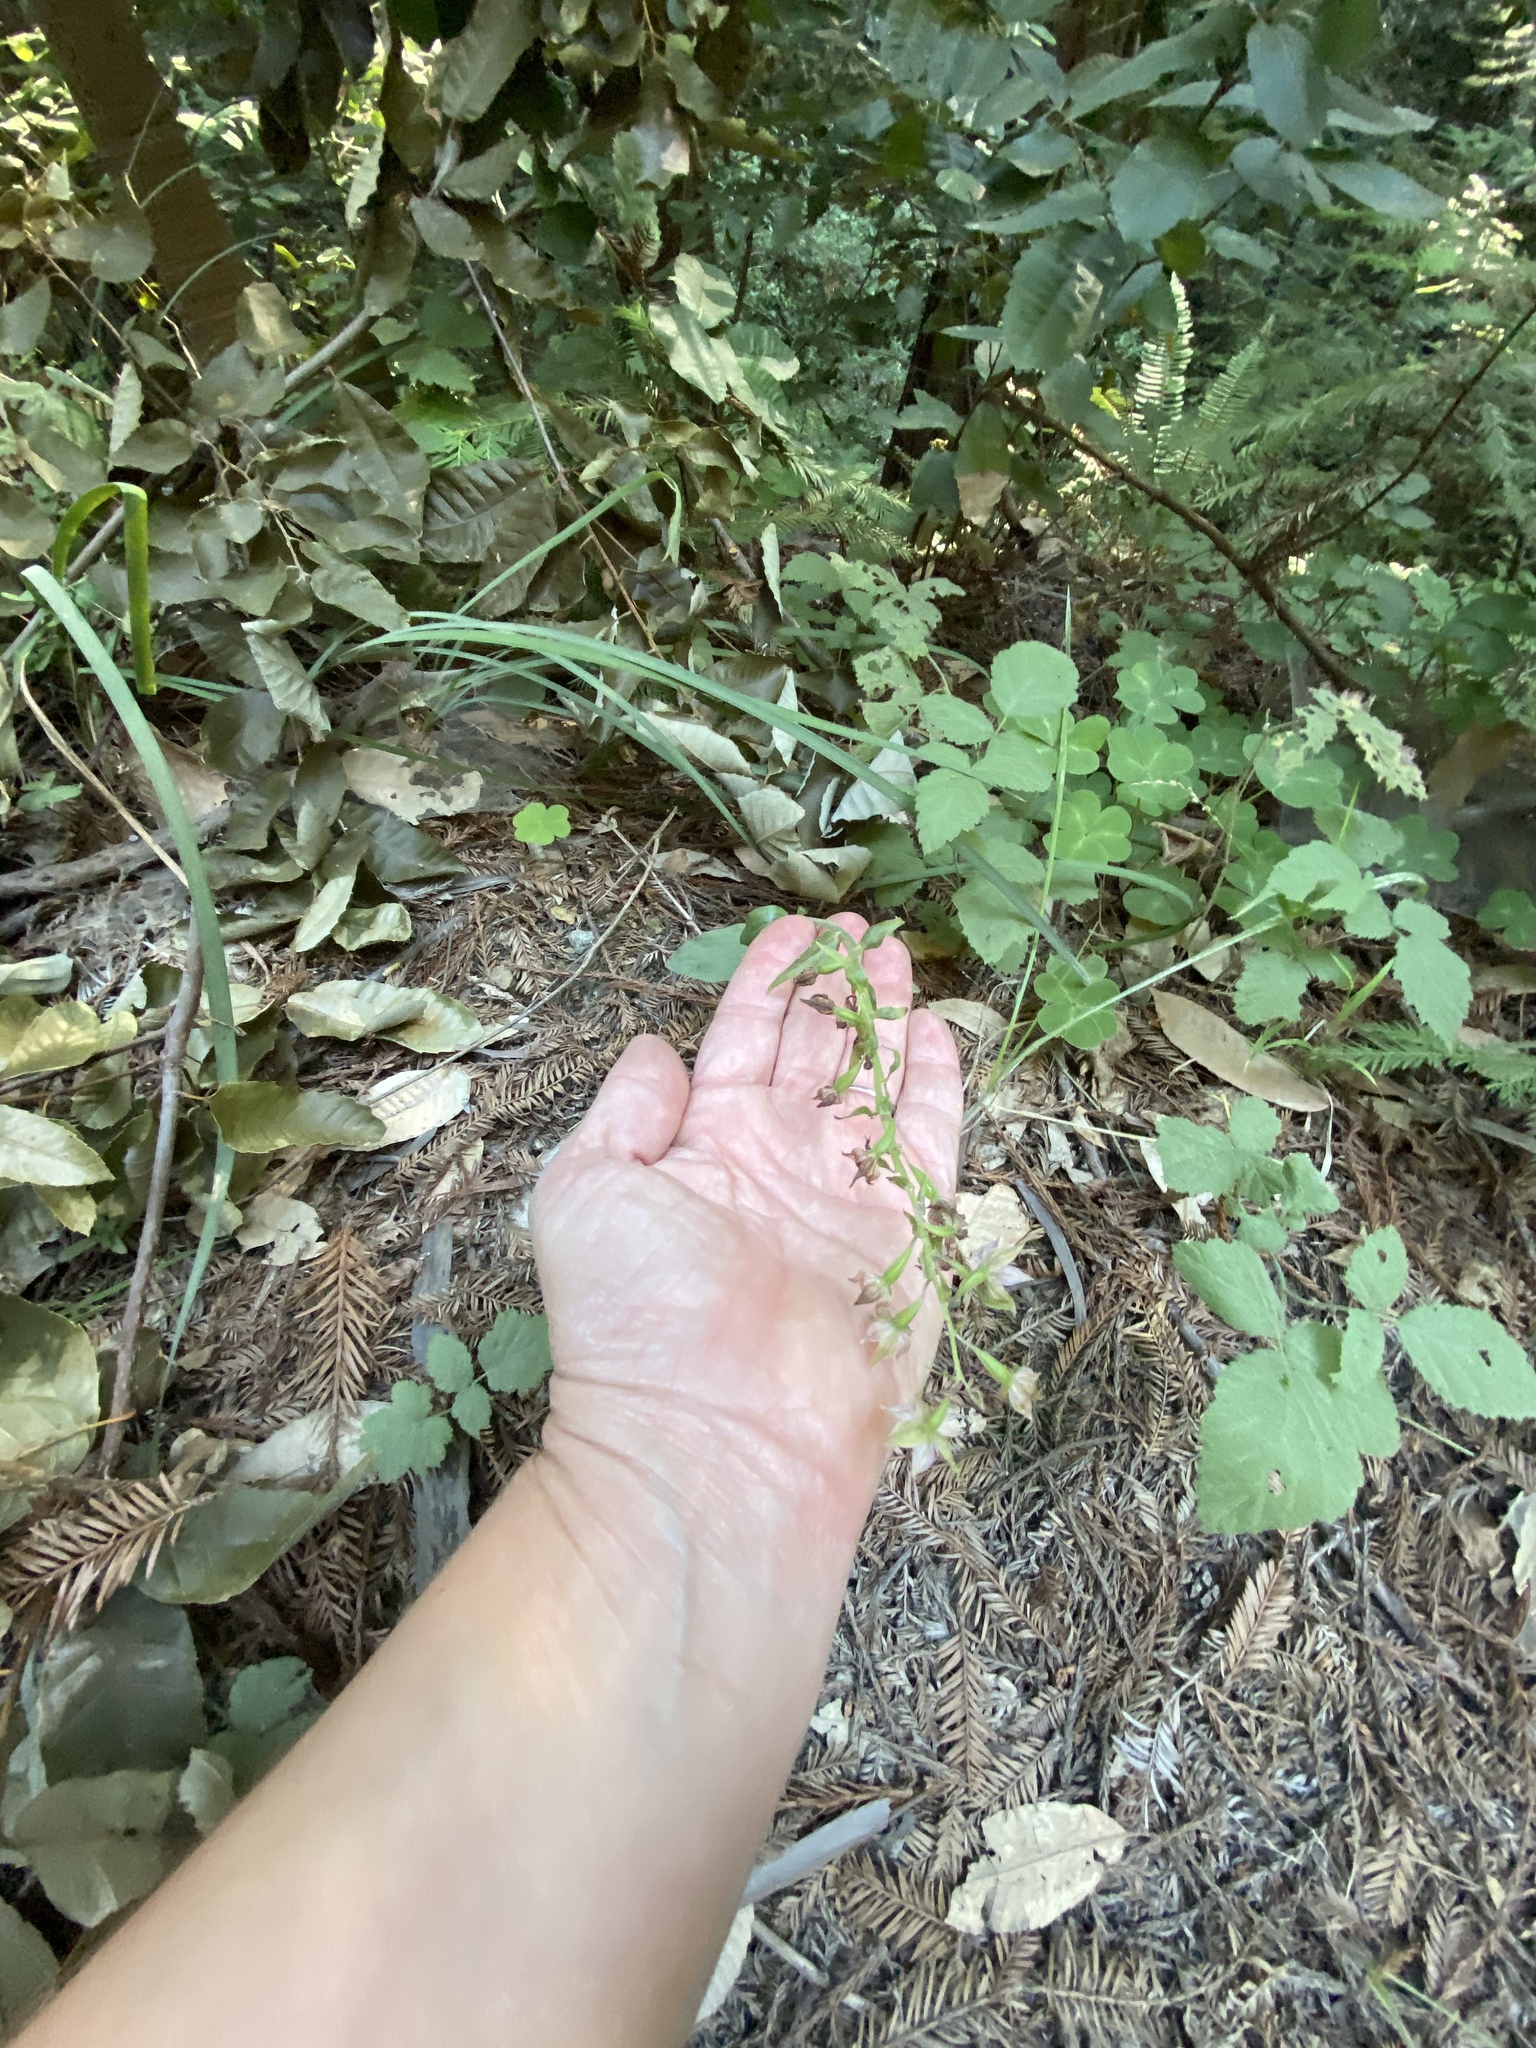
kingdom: Plantae
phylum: Tracheophyta
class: Liliopsida
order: Asparagales
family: Orchidaceae
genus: Epipactis
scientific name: Epipactis helleborine
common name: Broad-leaved helleborine
